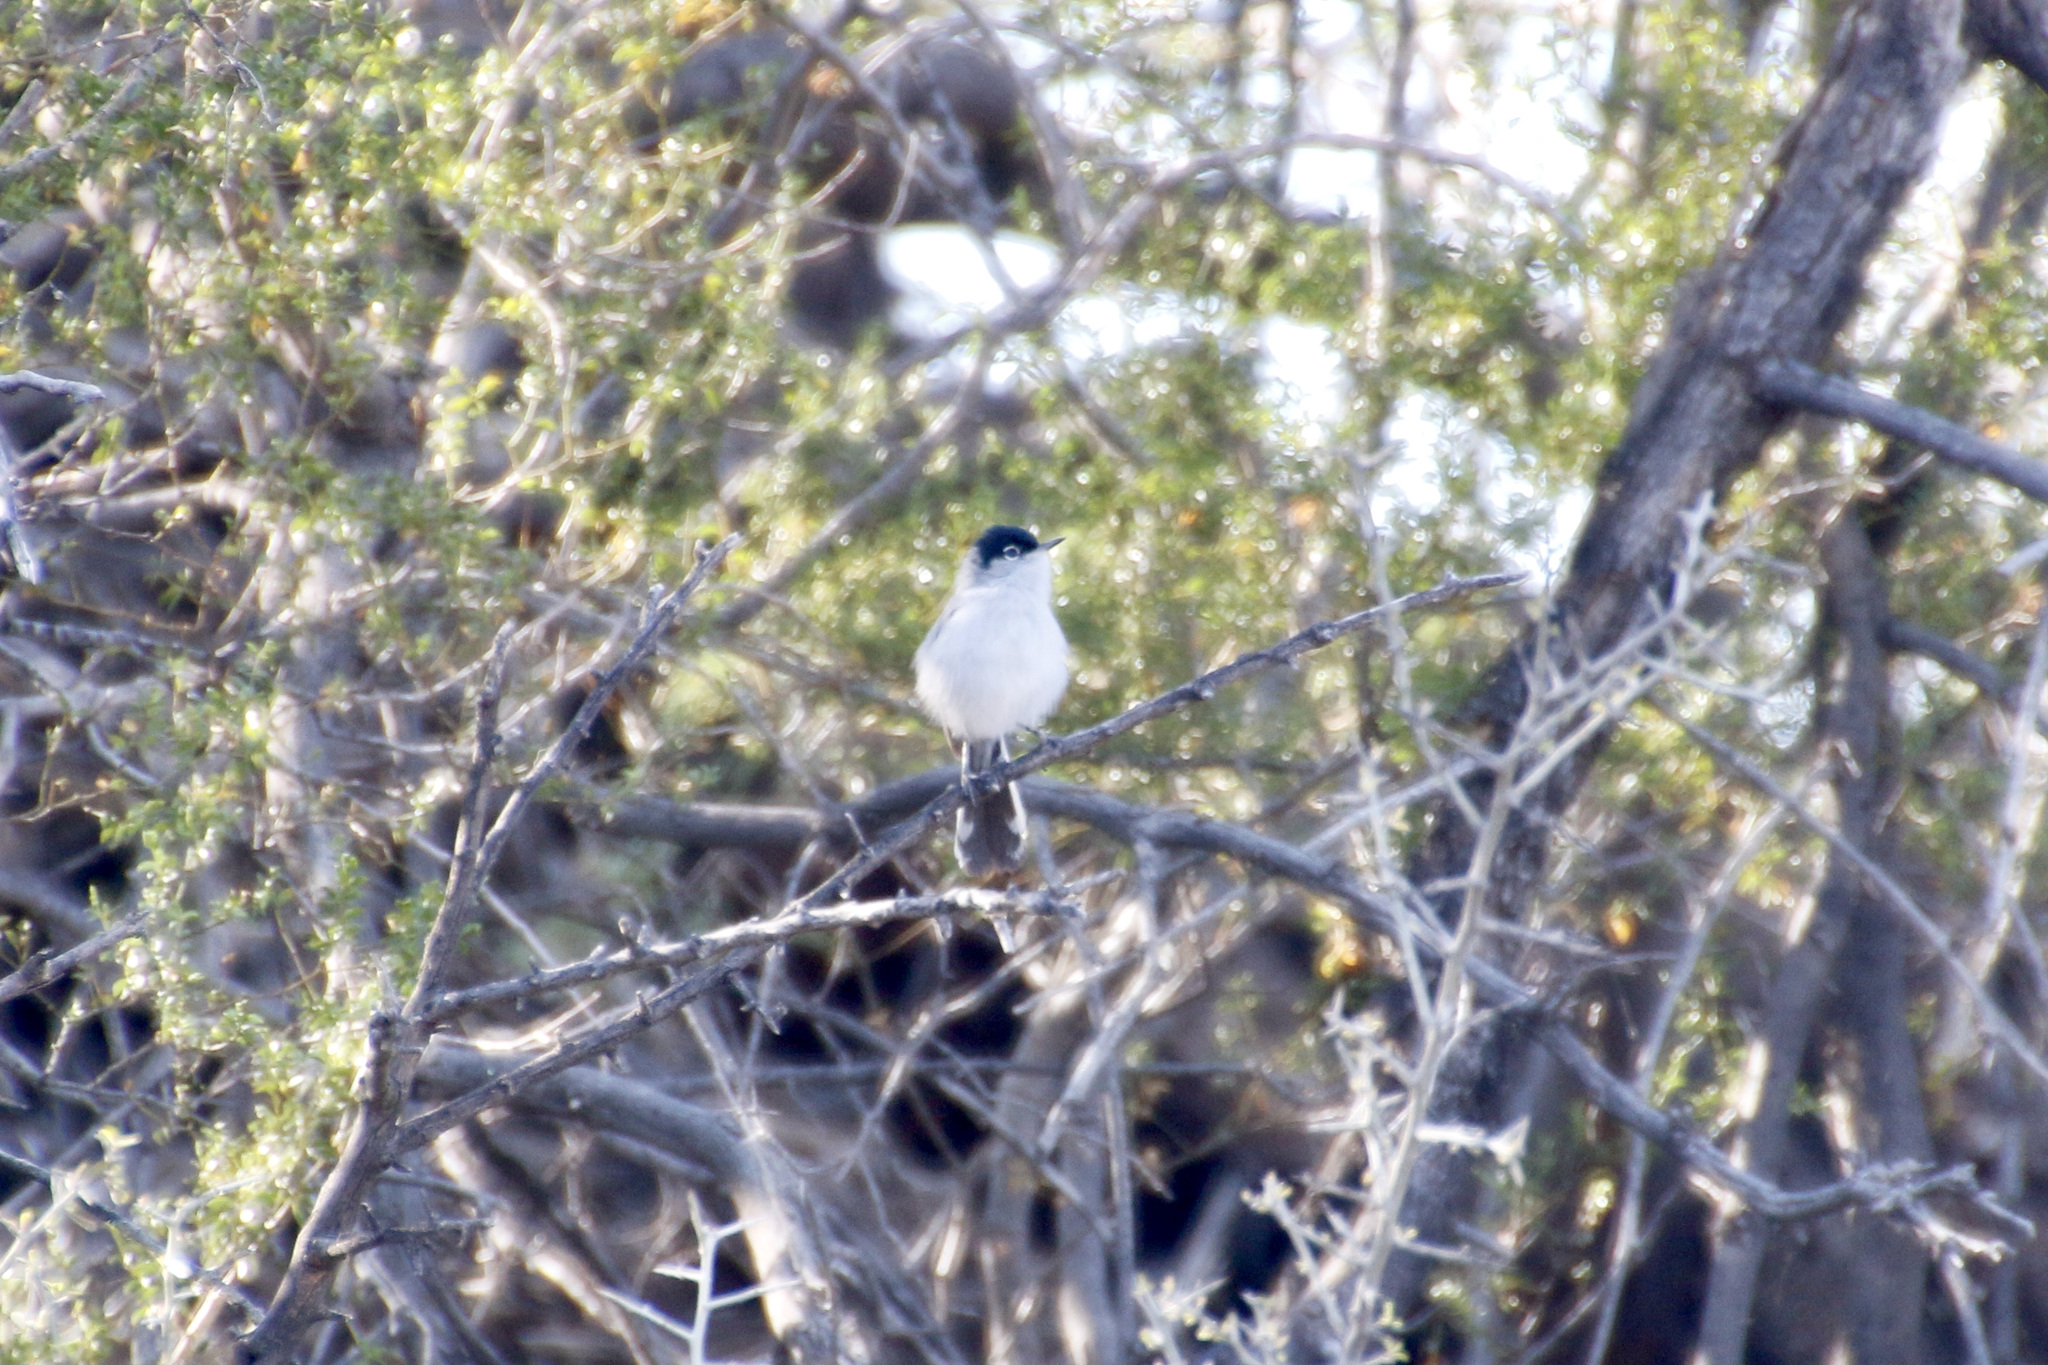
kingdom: Animalia
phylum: Chordata
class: Aves
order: Passeriformes
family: Polioptilidae
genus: Polioptila
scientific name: Polioptila melanura
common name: Black-tailed gnatcatcher
